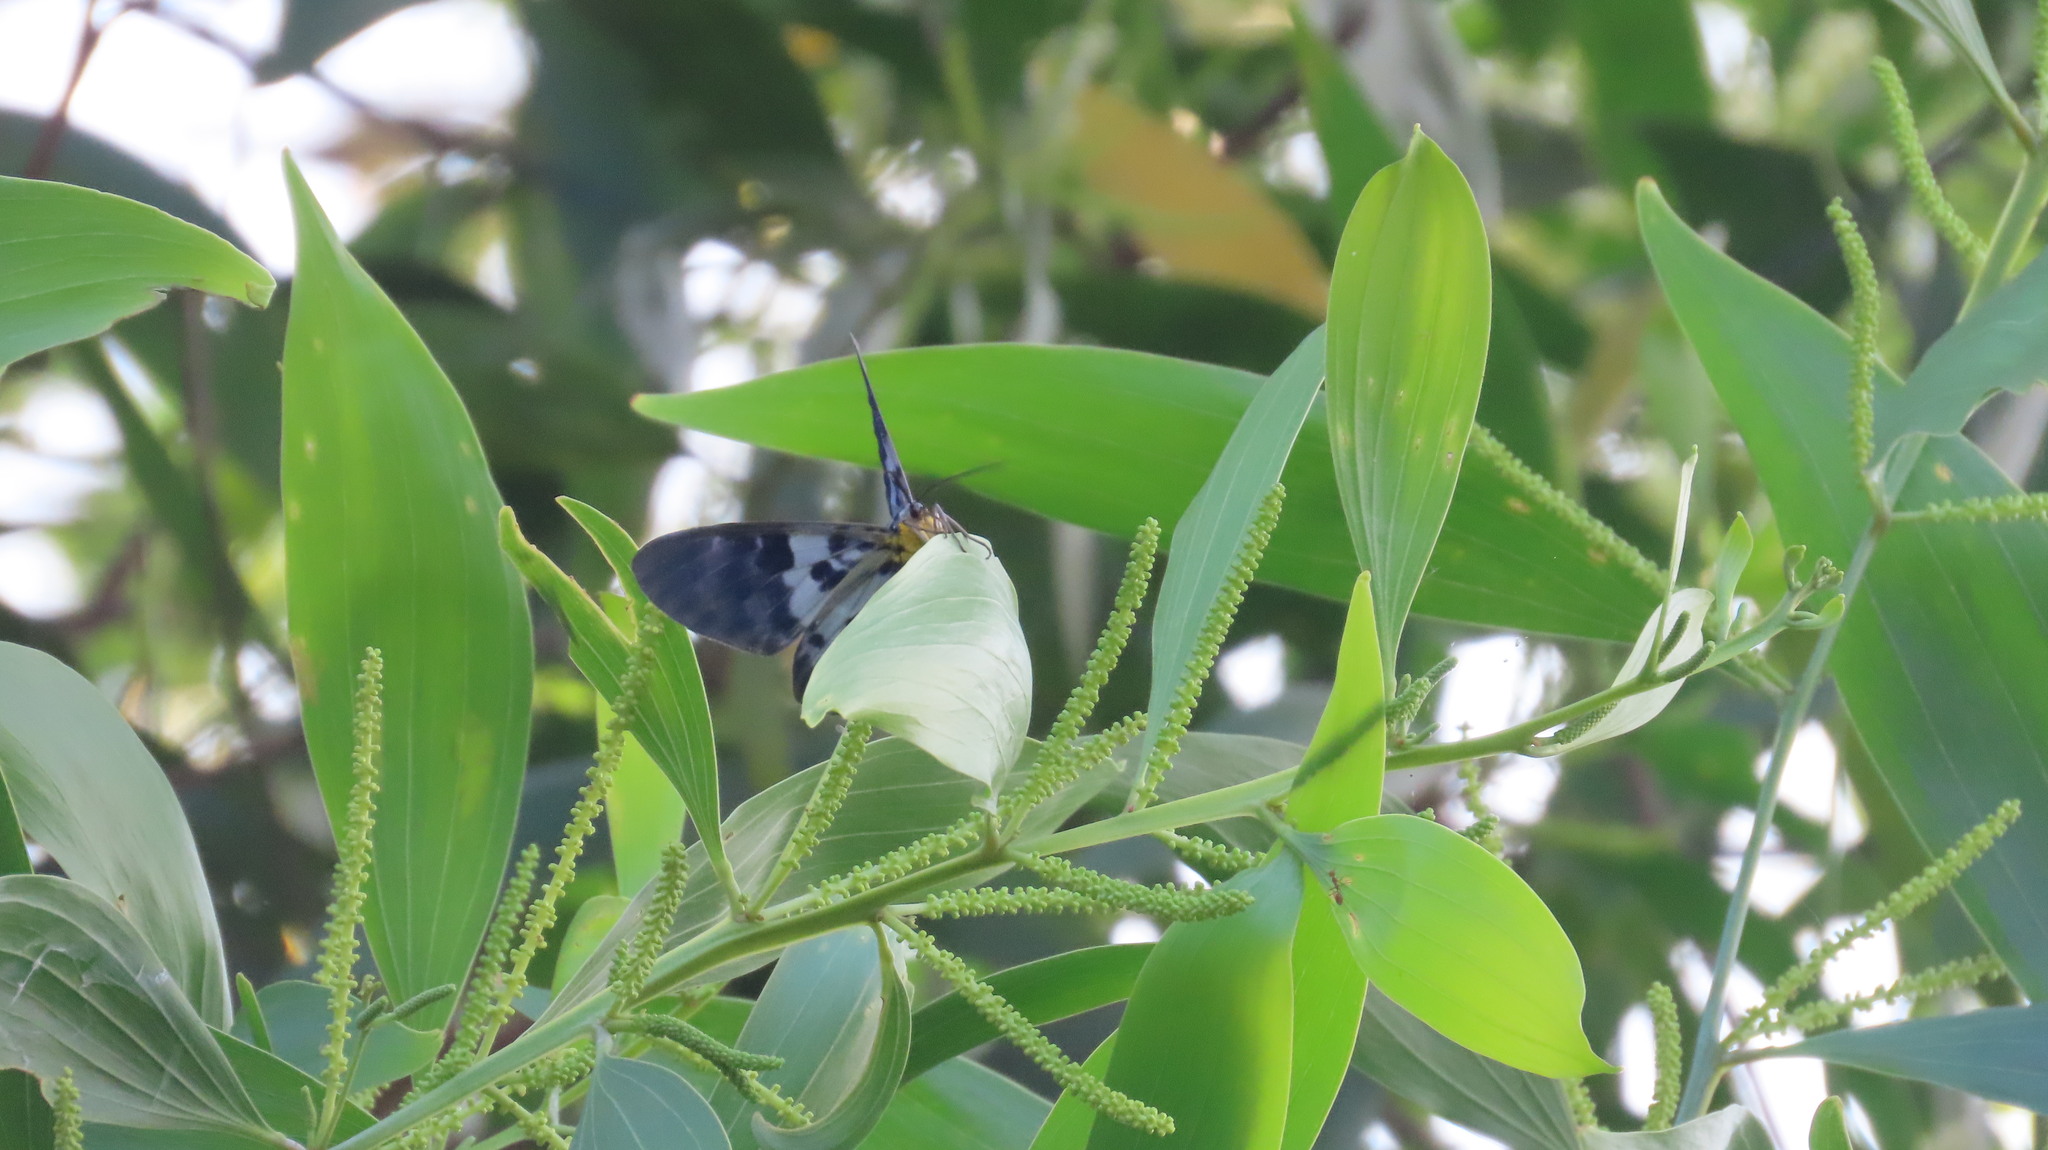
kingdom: Animalia
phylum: Arthropoda
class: Insecta
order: Lepidoptera
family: Geometridae
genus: Dysphania
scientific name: Dysphania percota
